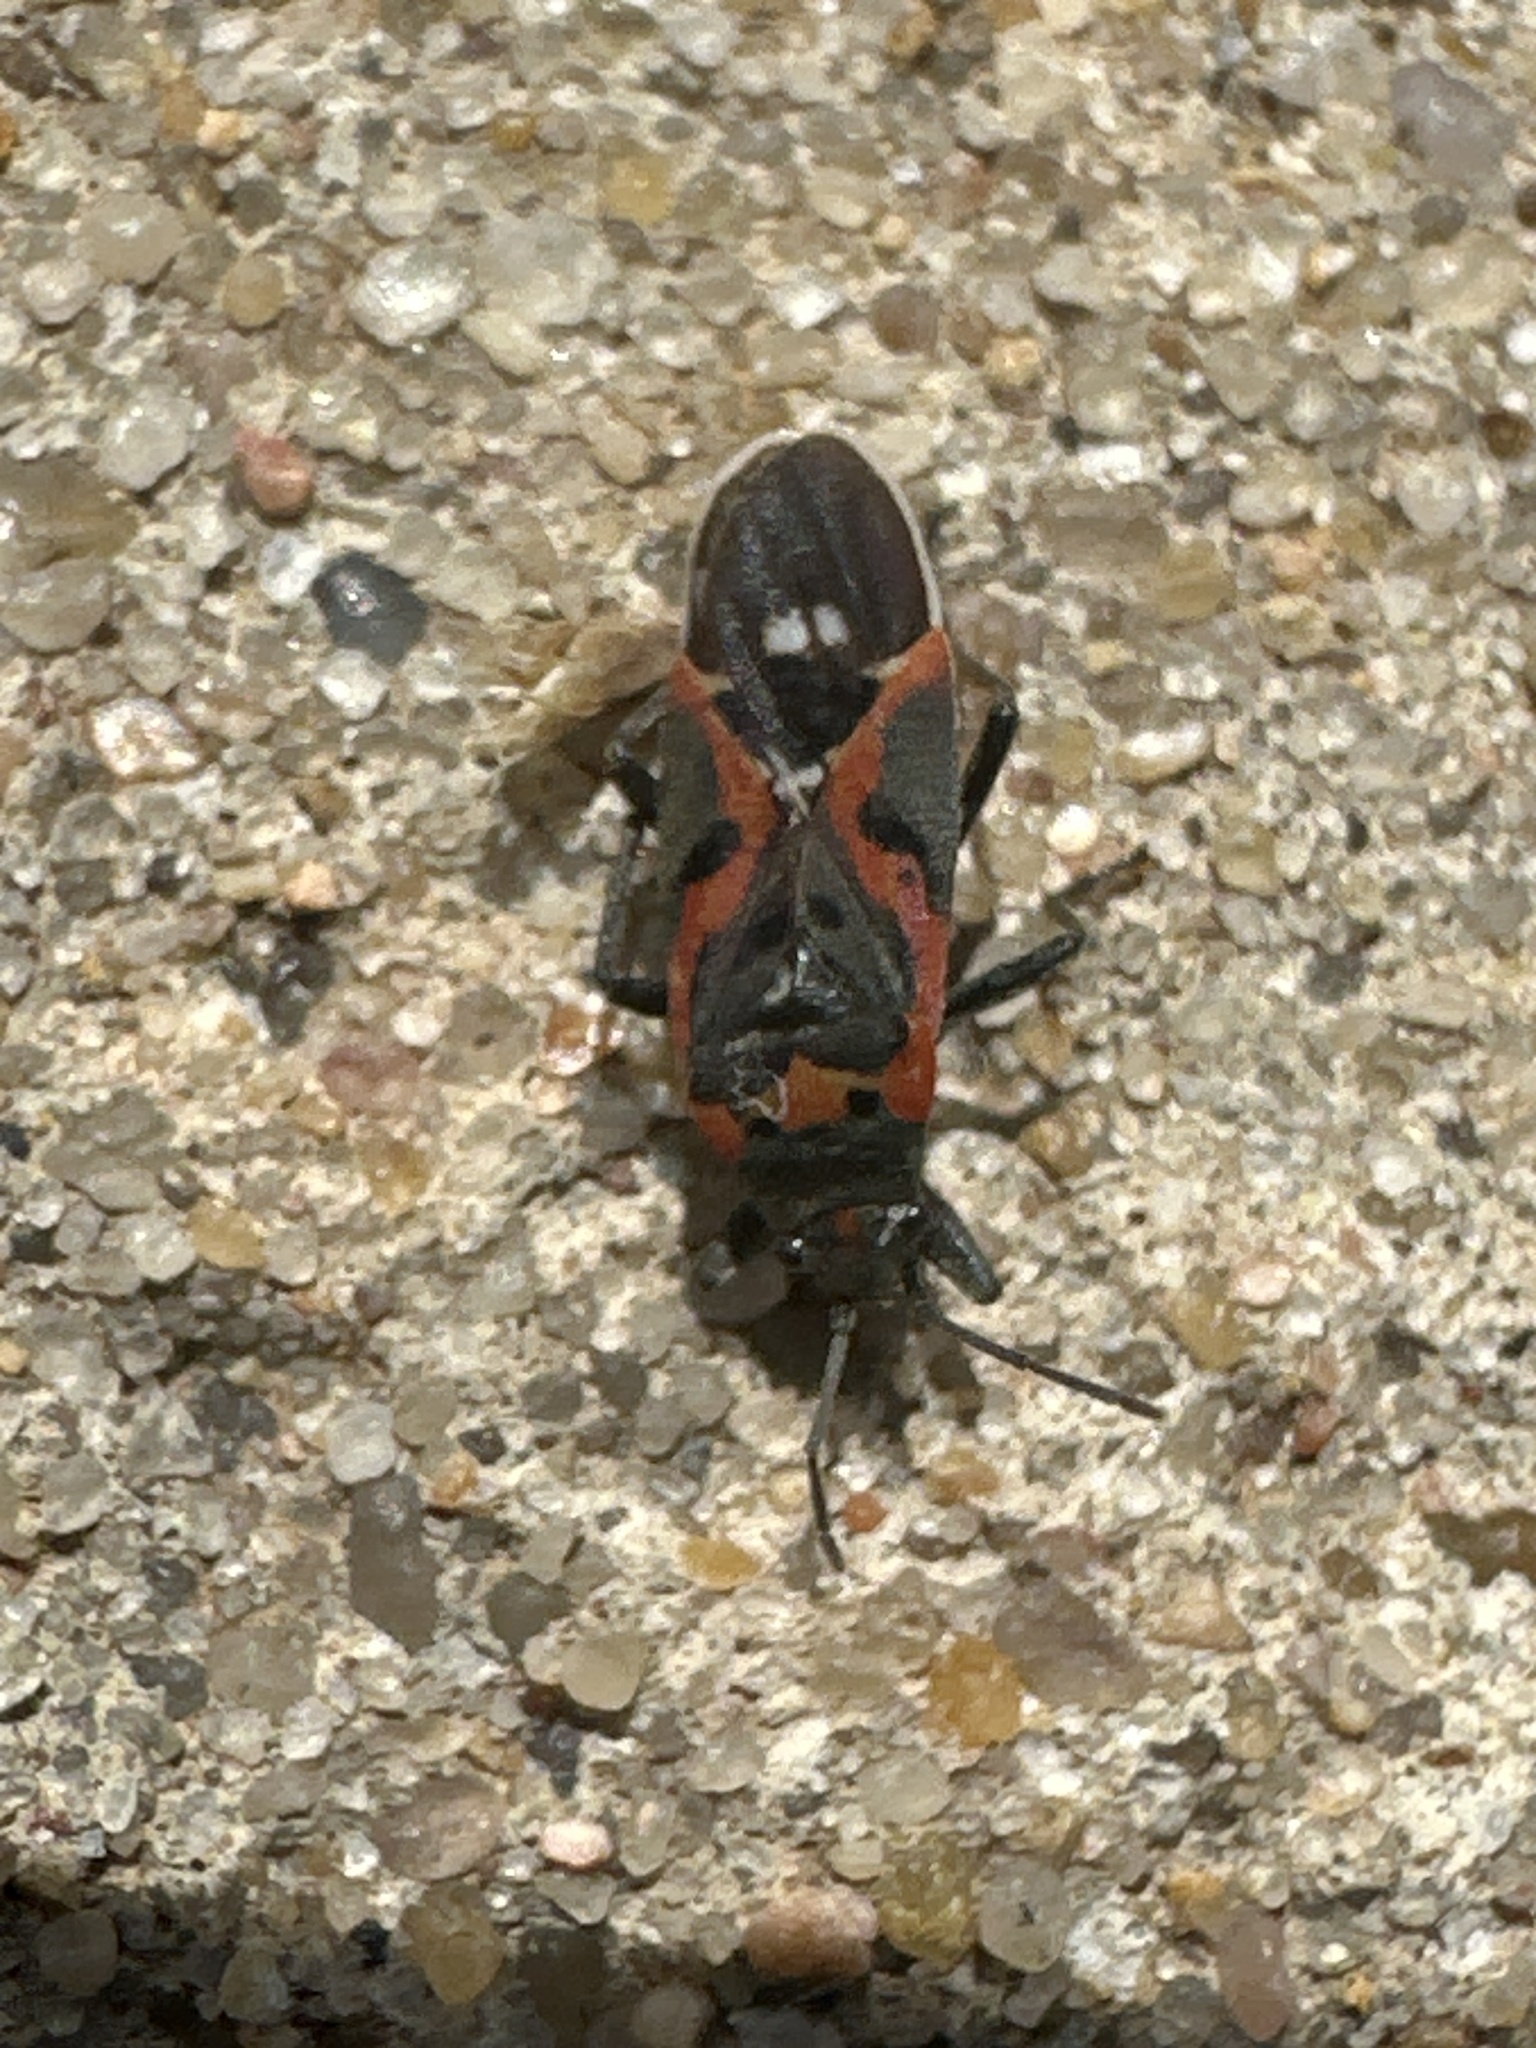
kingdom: Animalia
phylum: Arthropoda
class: Insecta
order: Hemiptera
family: Lygaeidae
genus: Lygaeus
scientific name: Lygaeus kalmii
